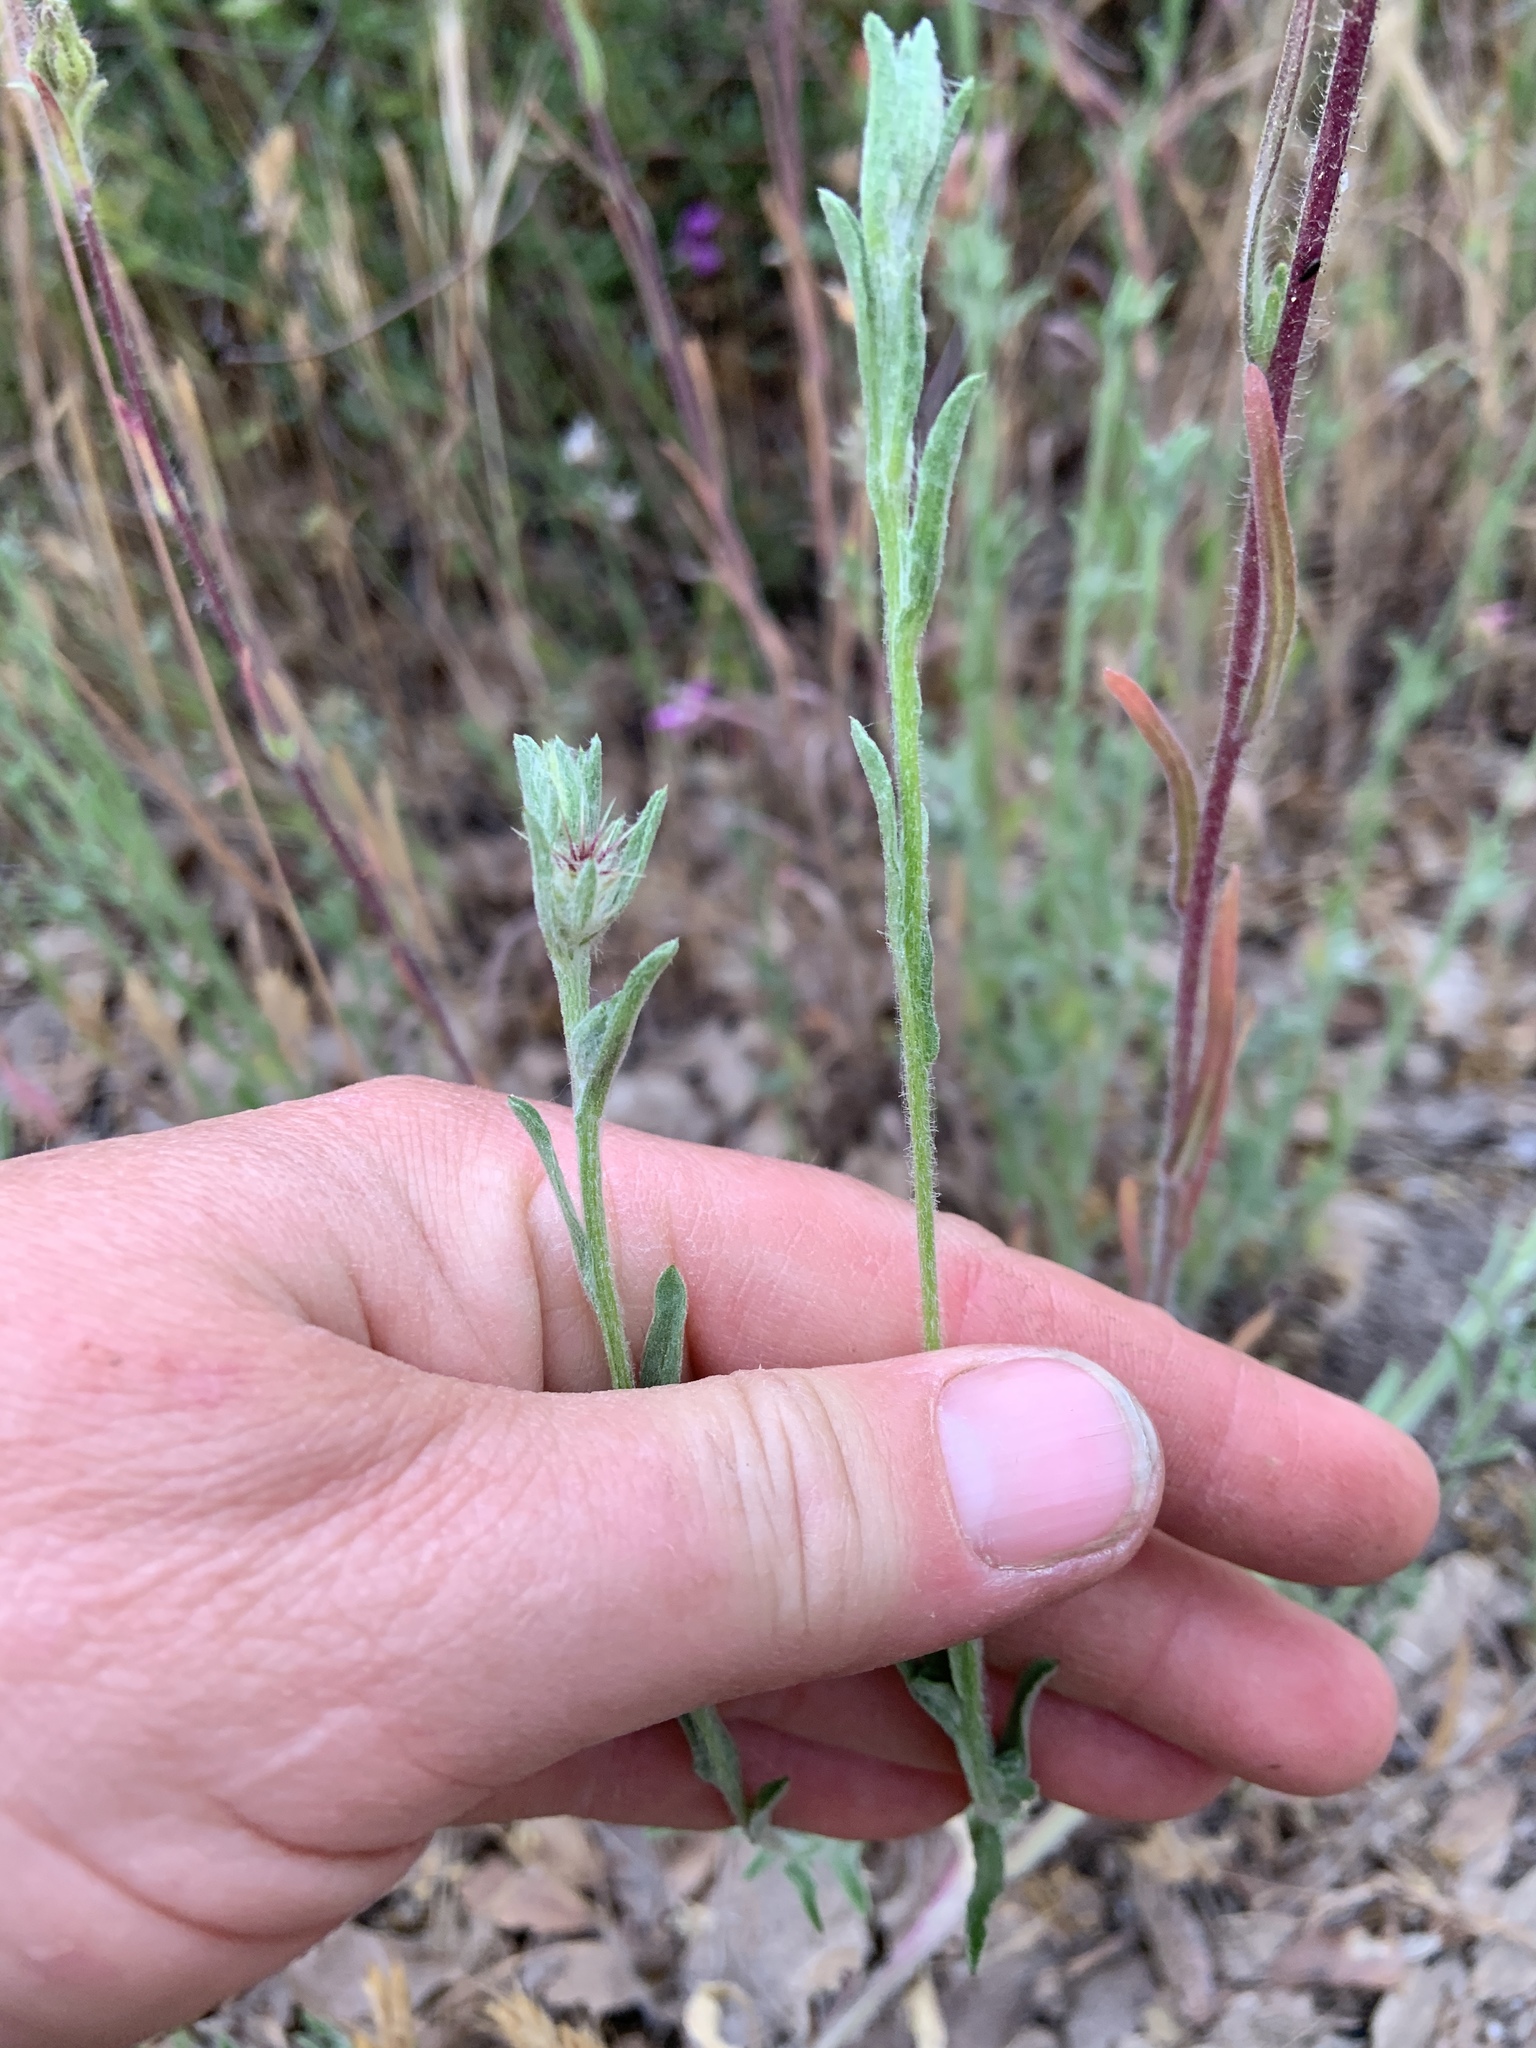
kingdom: Plantae
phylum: Tracheophyta
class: Magnoliopsida
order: Asterales
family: Asteraceae
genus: Centaurea
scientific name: Centaurea melitensis
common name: Maltese star-thistle
